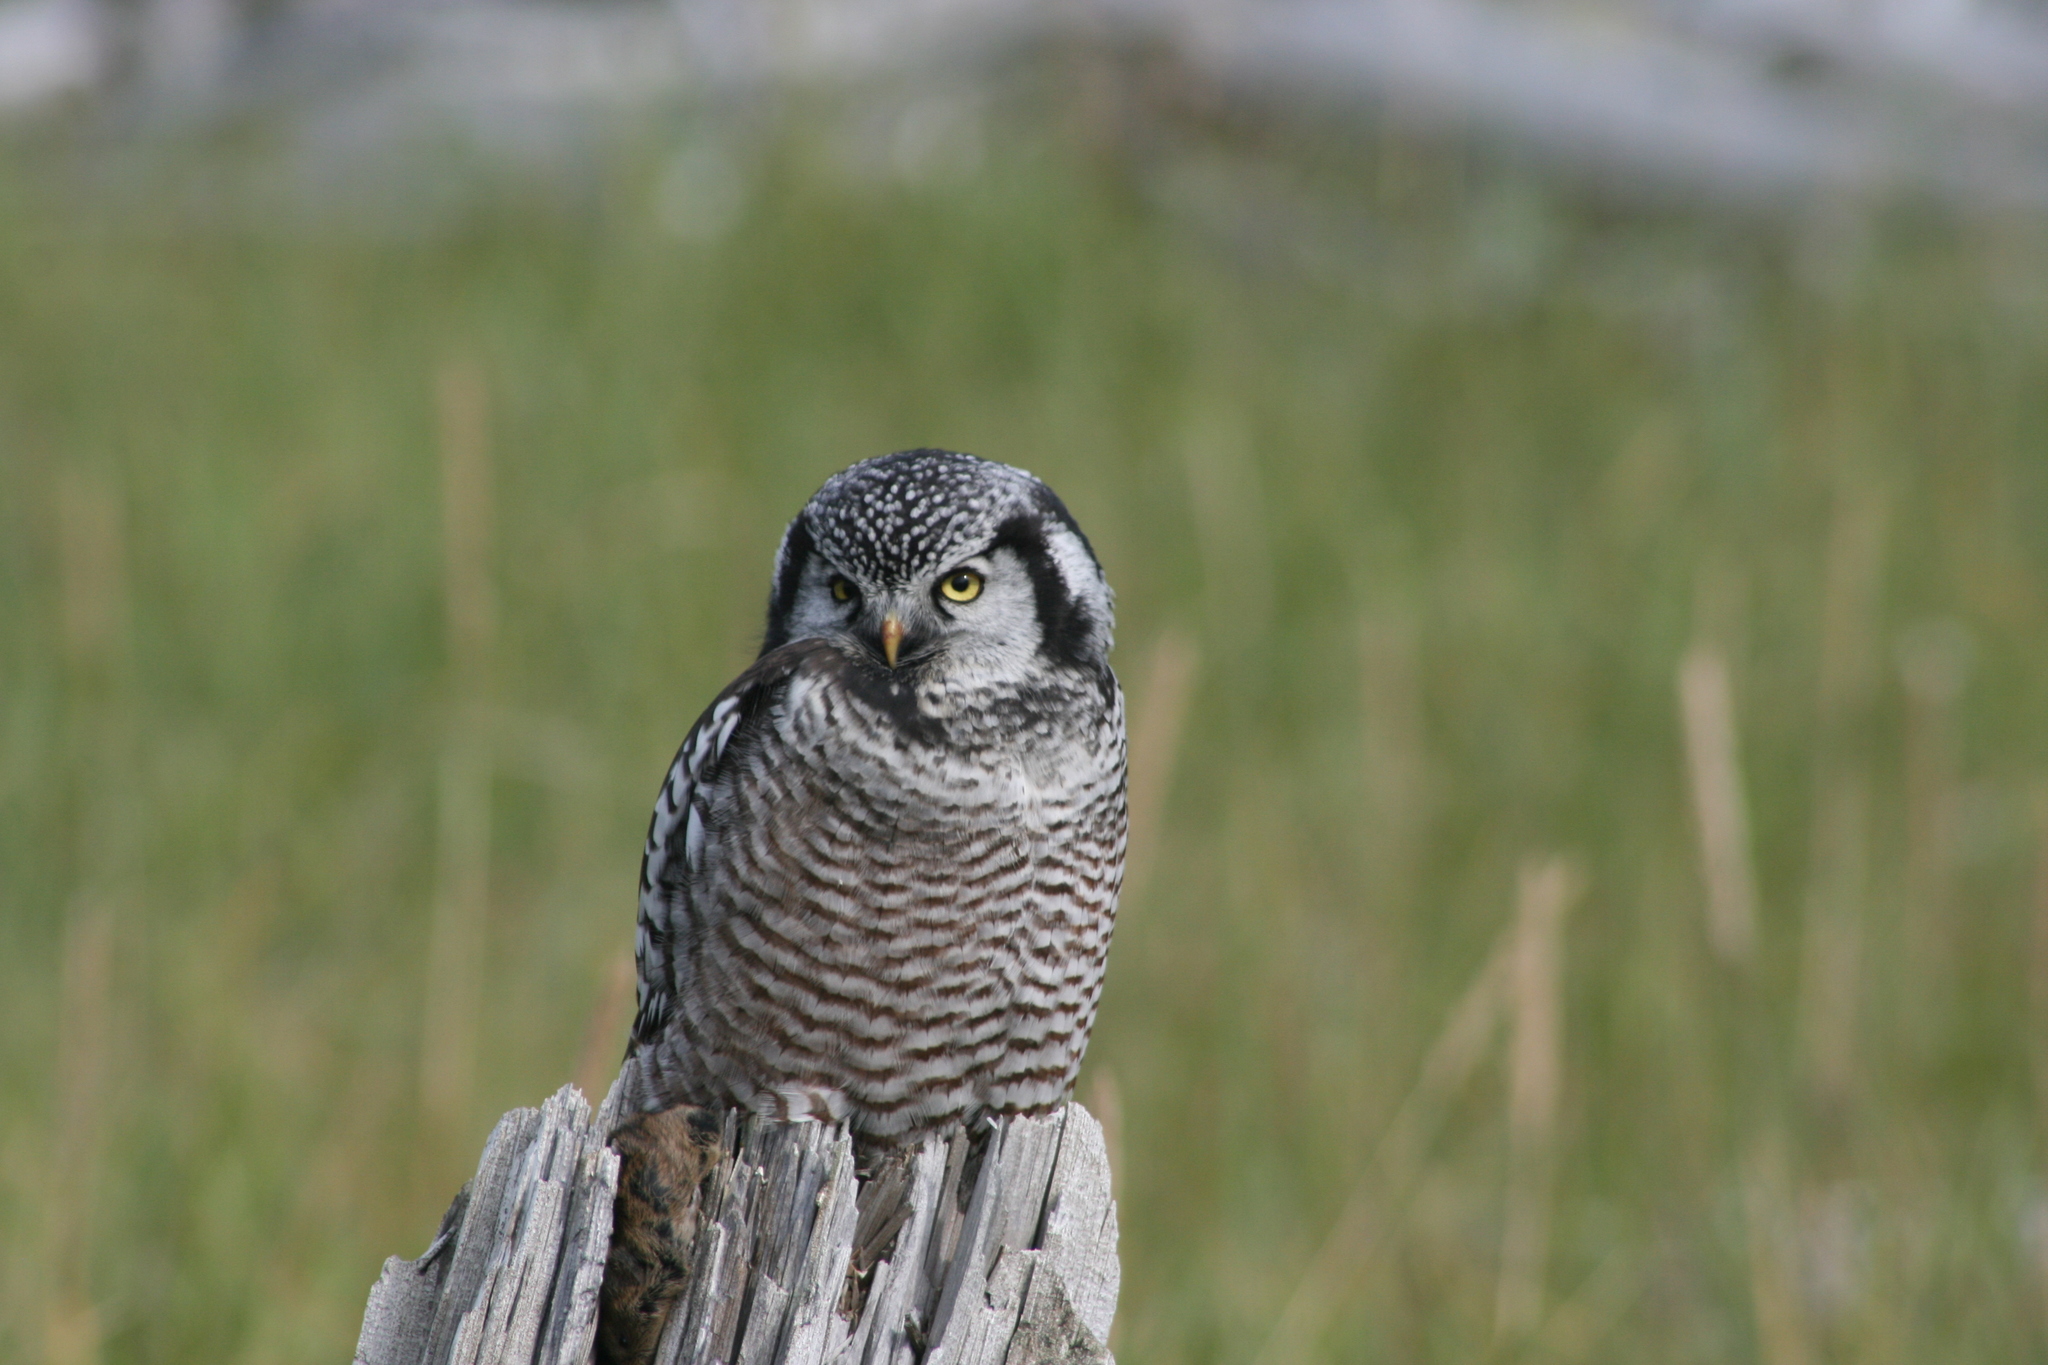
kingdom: Animalia
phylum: Chordata
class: Aves
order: Strigiformes
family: Strigidae
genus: Surnia
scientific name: Surnia ulula
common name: Northern hawk-owl
